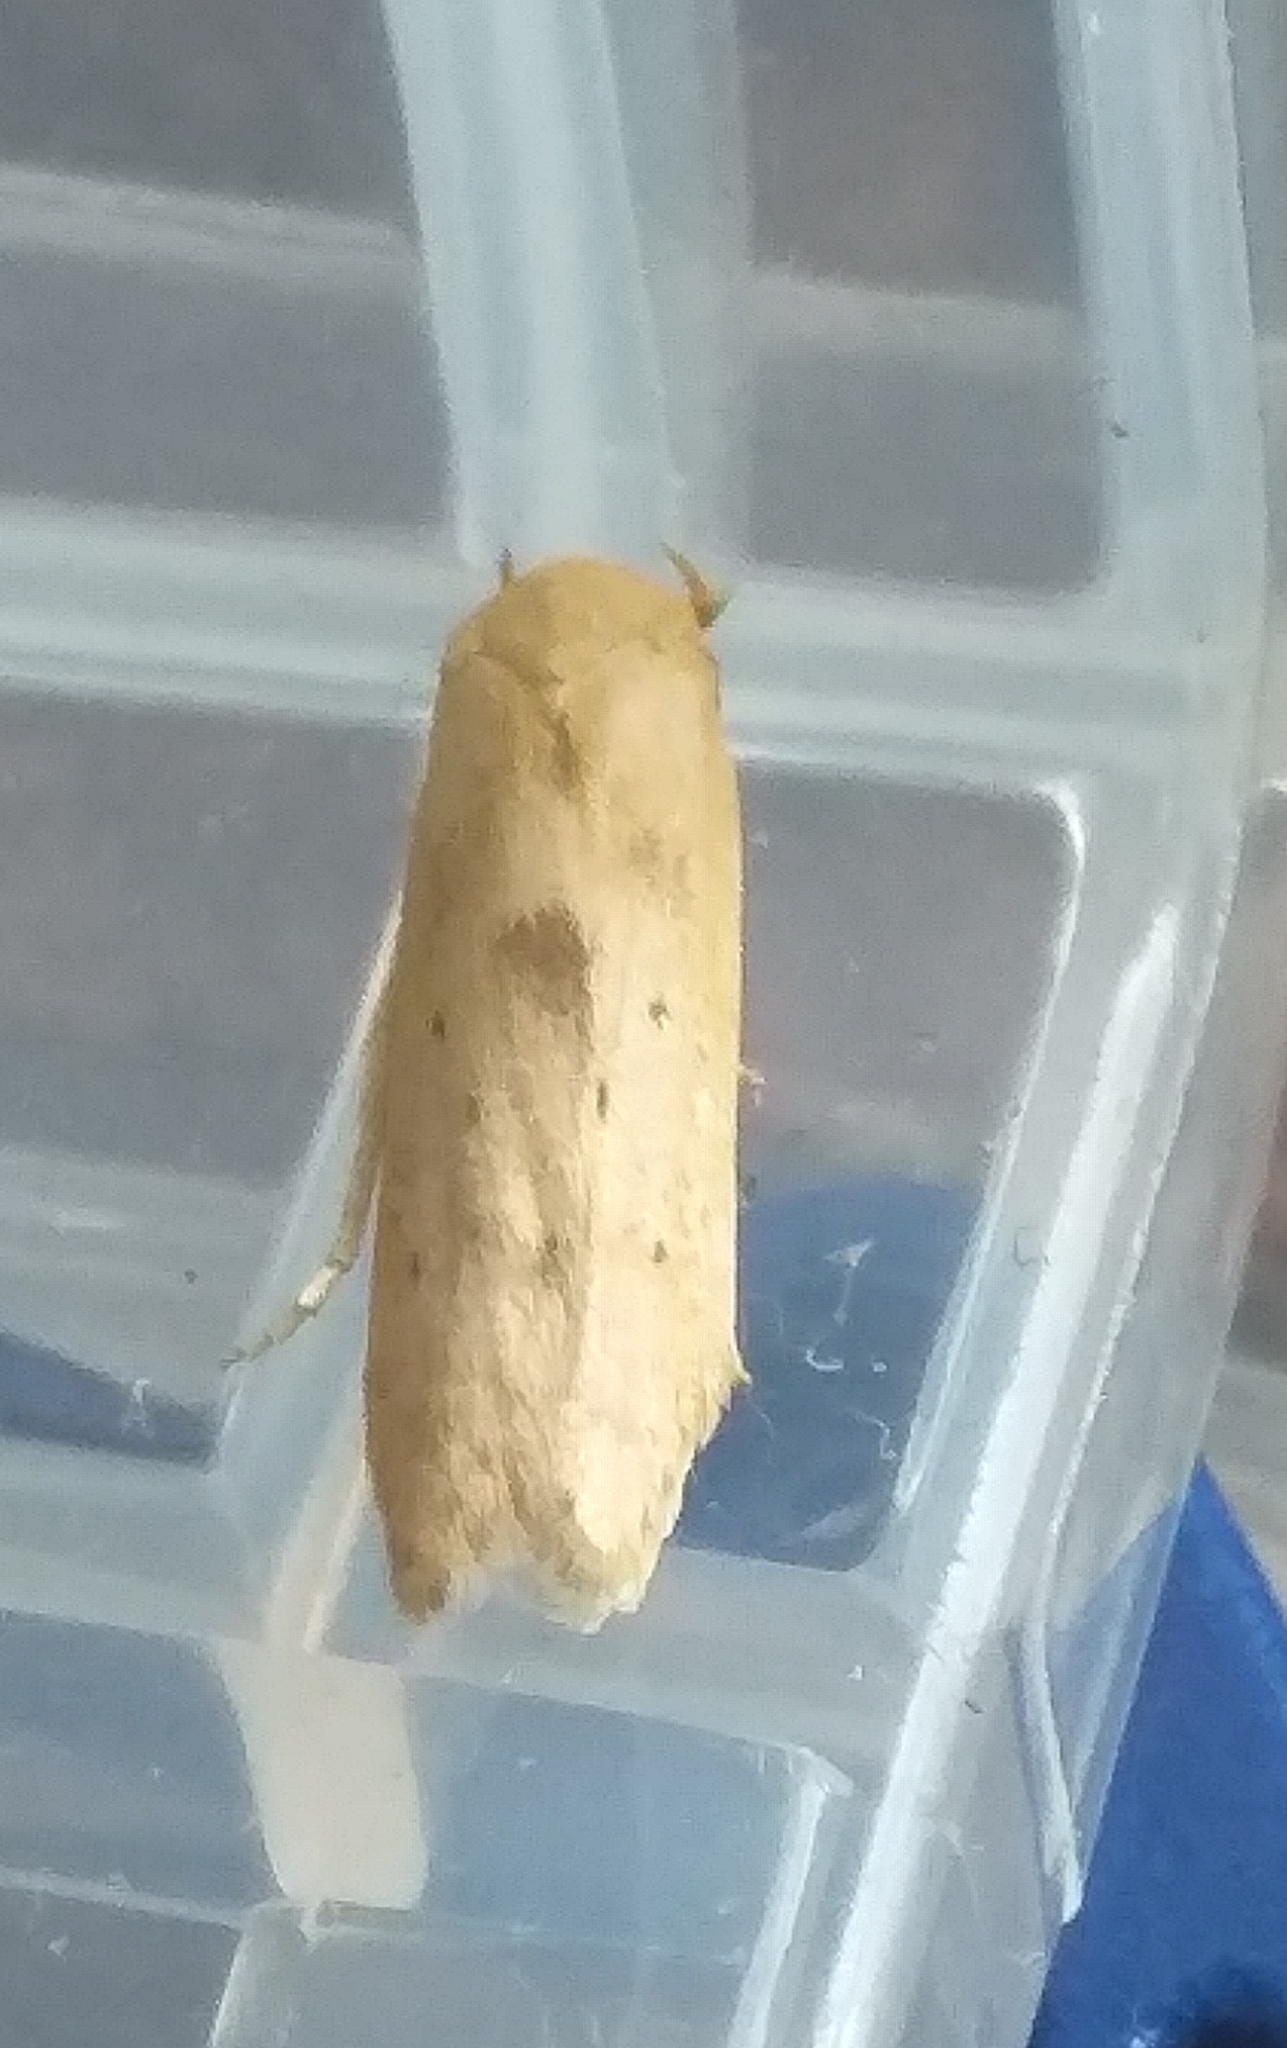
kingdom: Animalia
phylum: Arthropoda
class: Insecta
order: Lepidoptera
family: Blastobasidae
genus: Blastobasis
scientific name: Blastobasis lacticolella
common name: London dowd
